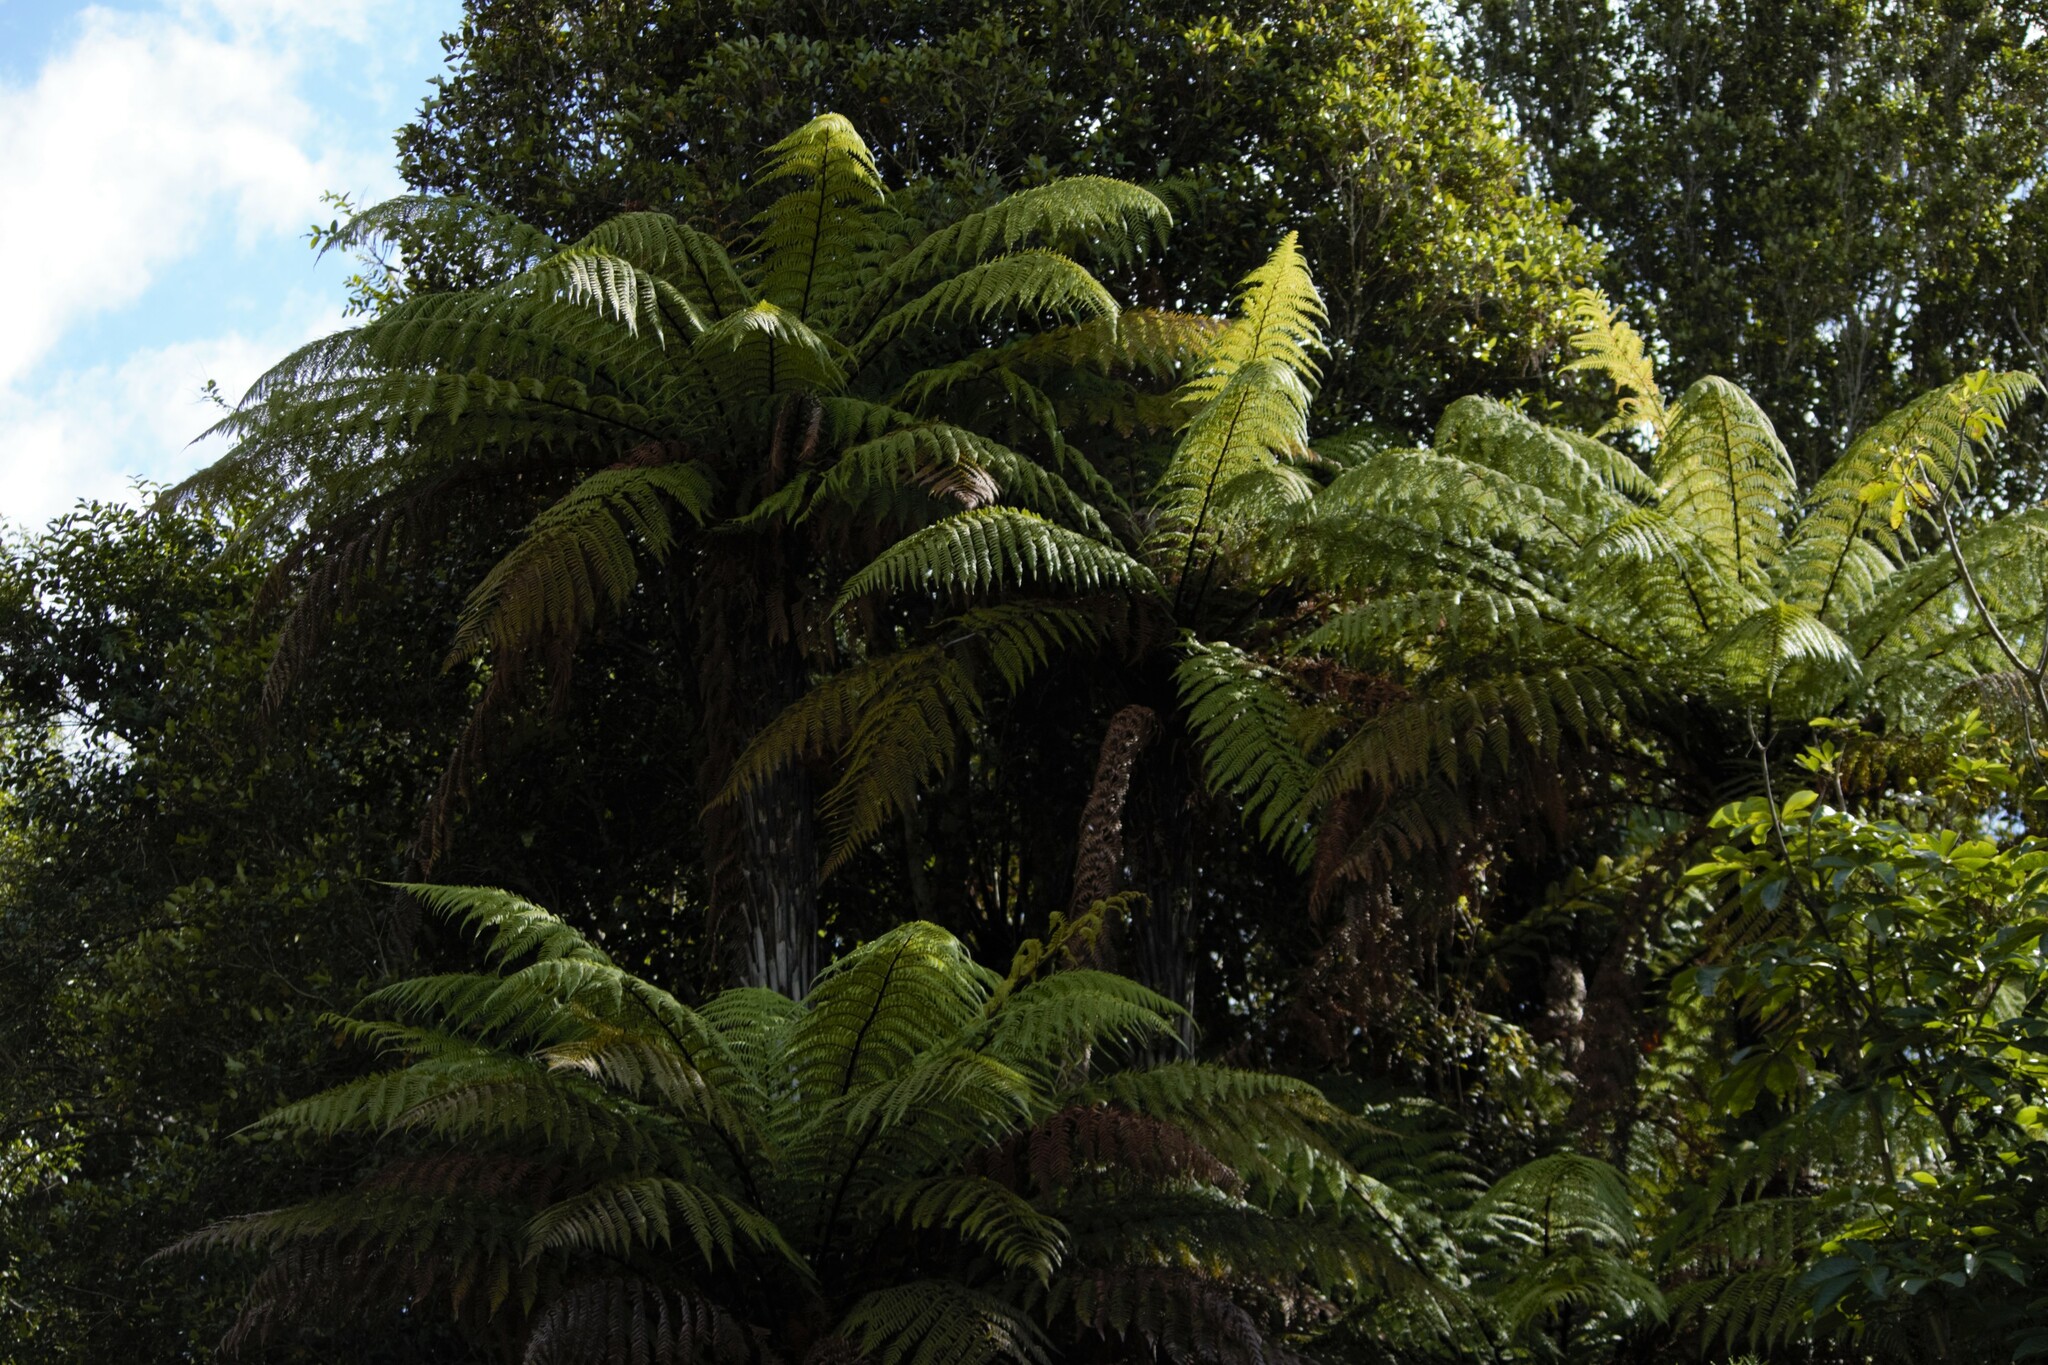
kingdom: Plantae
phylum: Tracheophyta
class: Polypodiopsida
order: Cyatheales
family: Dicksoniaceae
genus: Dicksonia
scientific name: Dicksonia squarrosa
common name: Hard treefern
